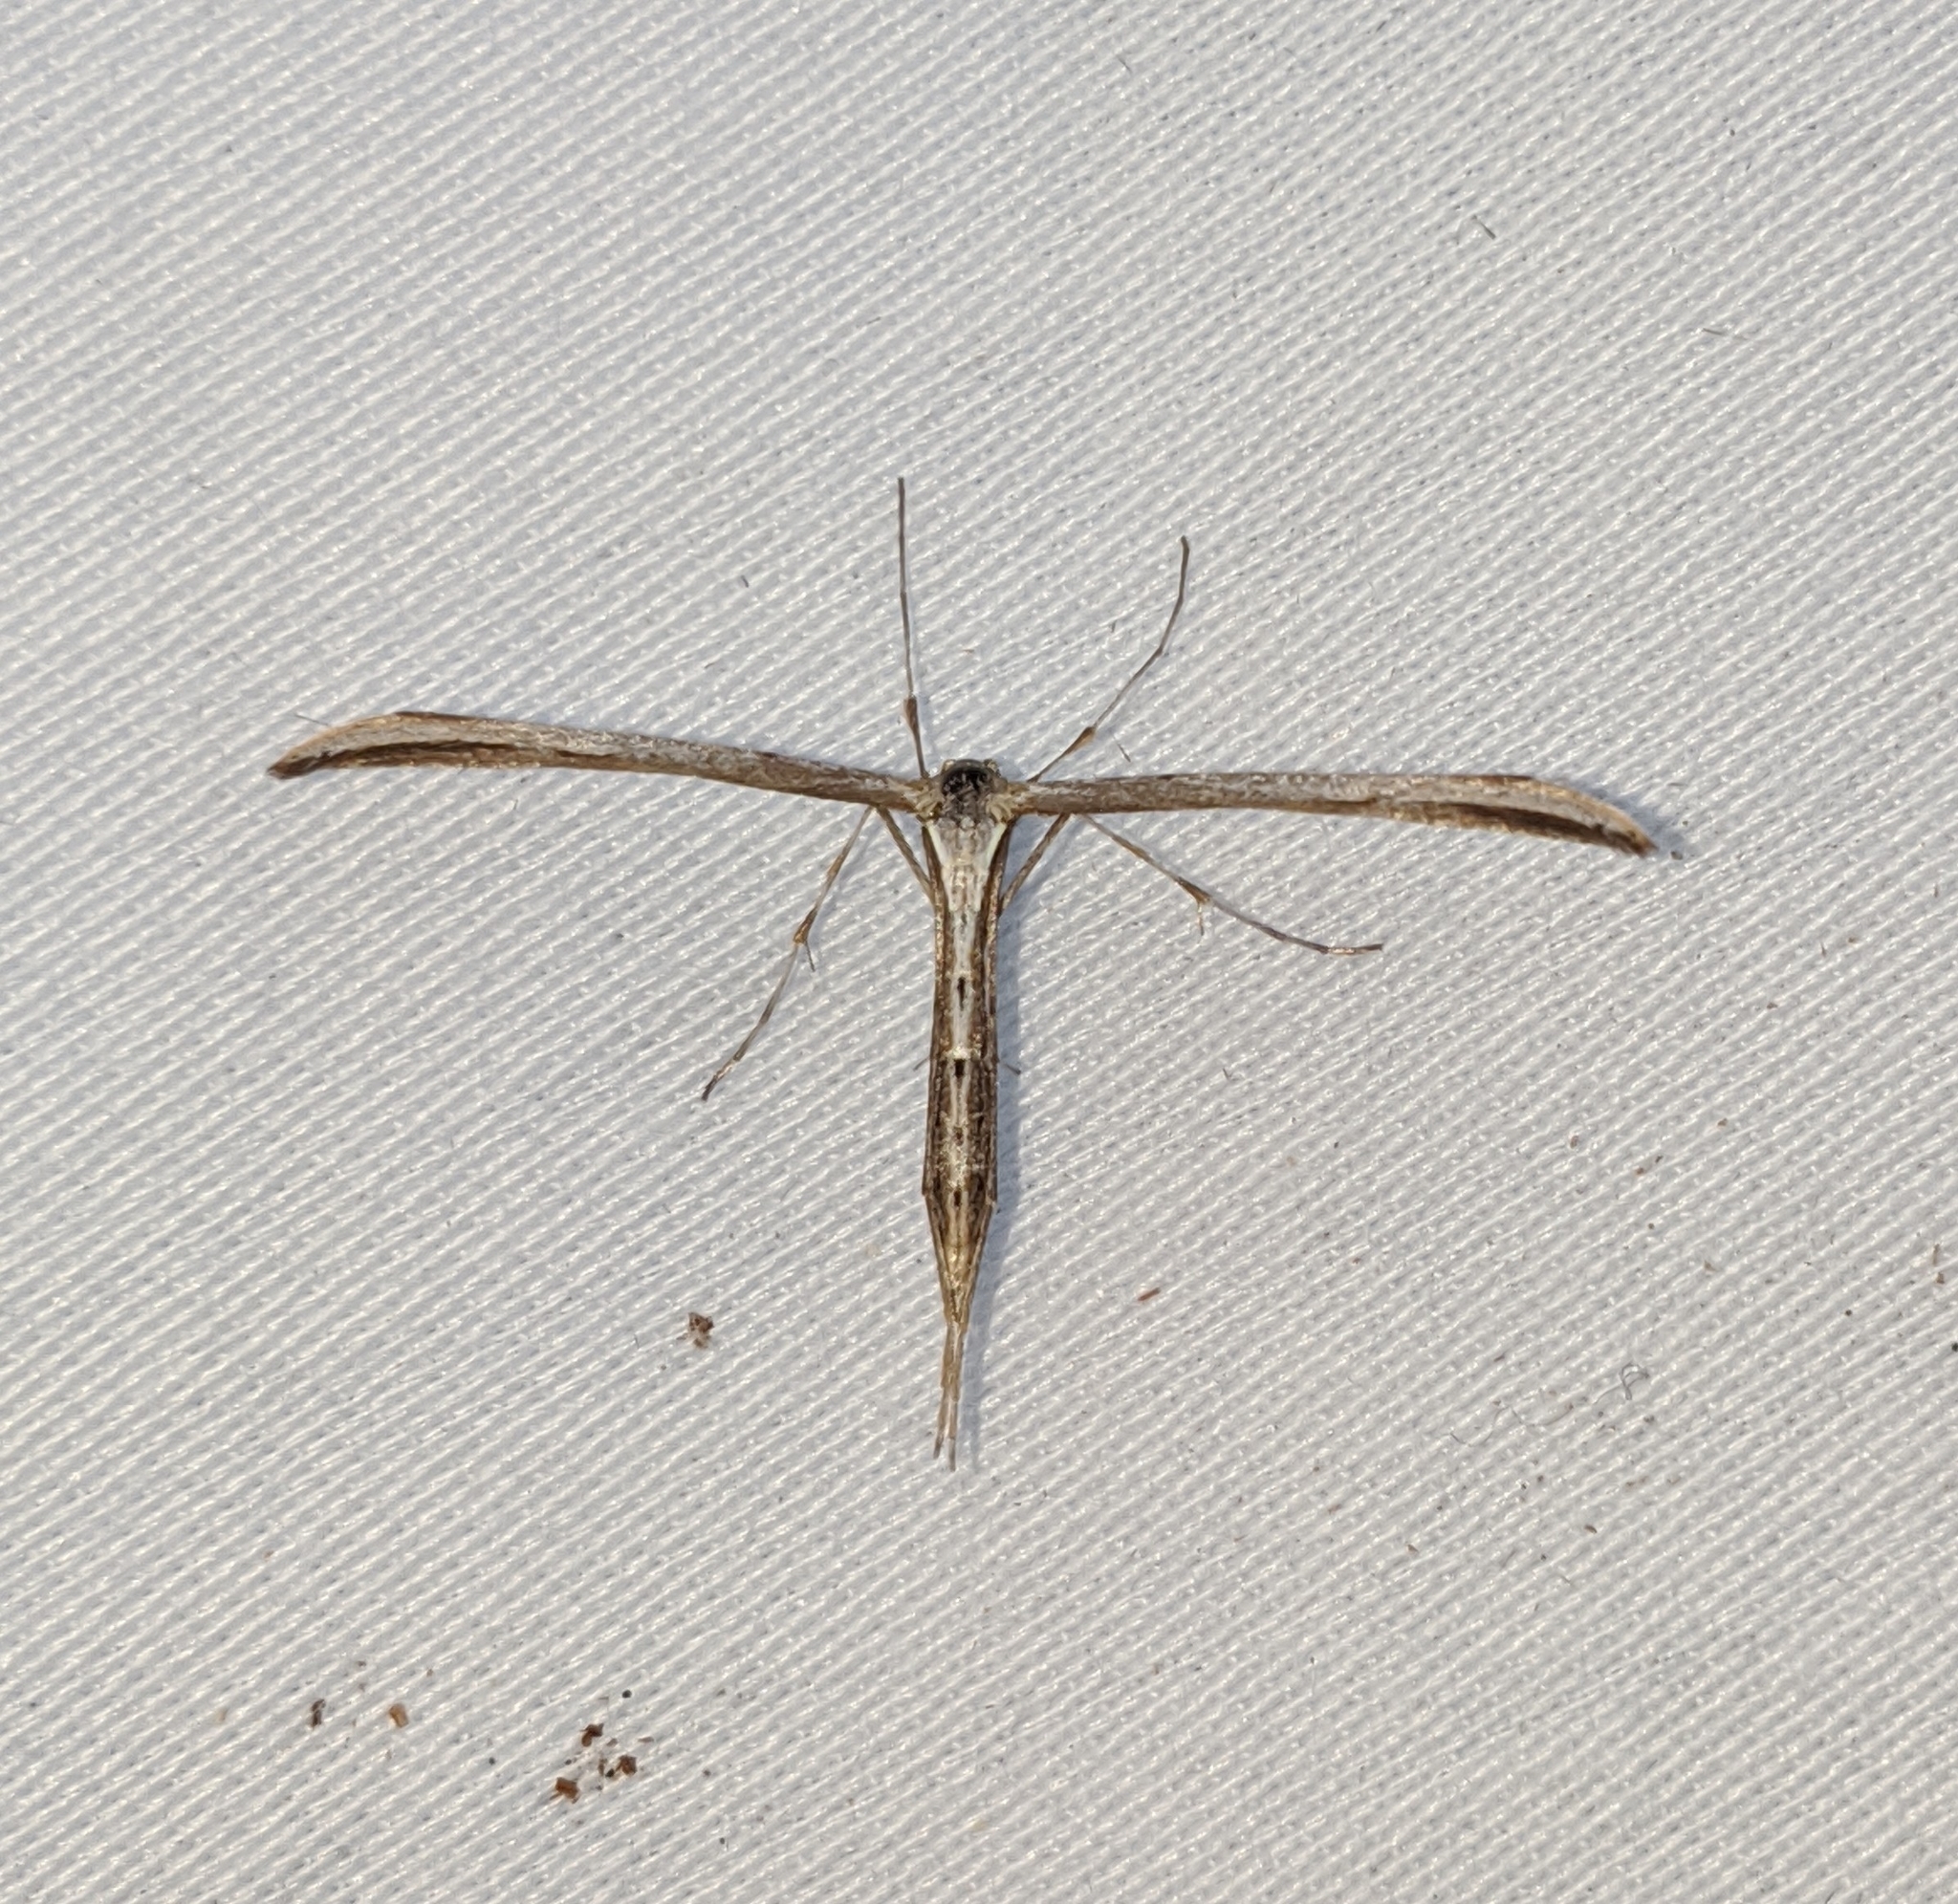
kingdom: Animalia
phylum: Arthropoda
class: Insecta
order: Lepidoptera
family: Pterophoridae
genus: Emmelina
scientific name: Emmelina monodactyla
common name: Common plume
